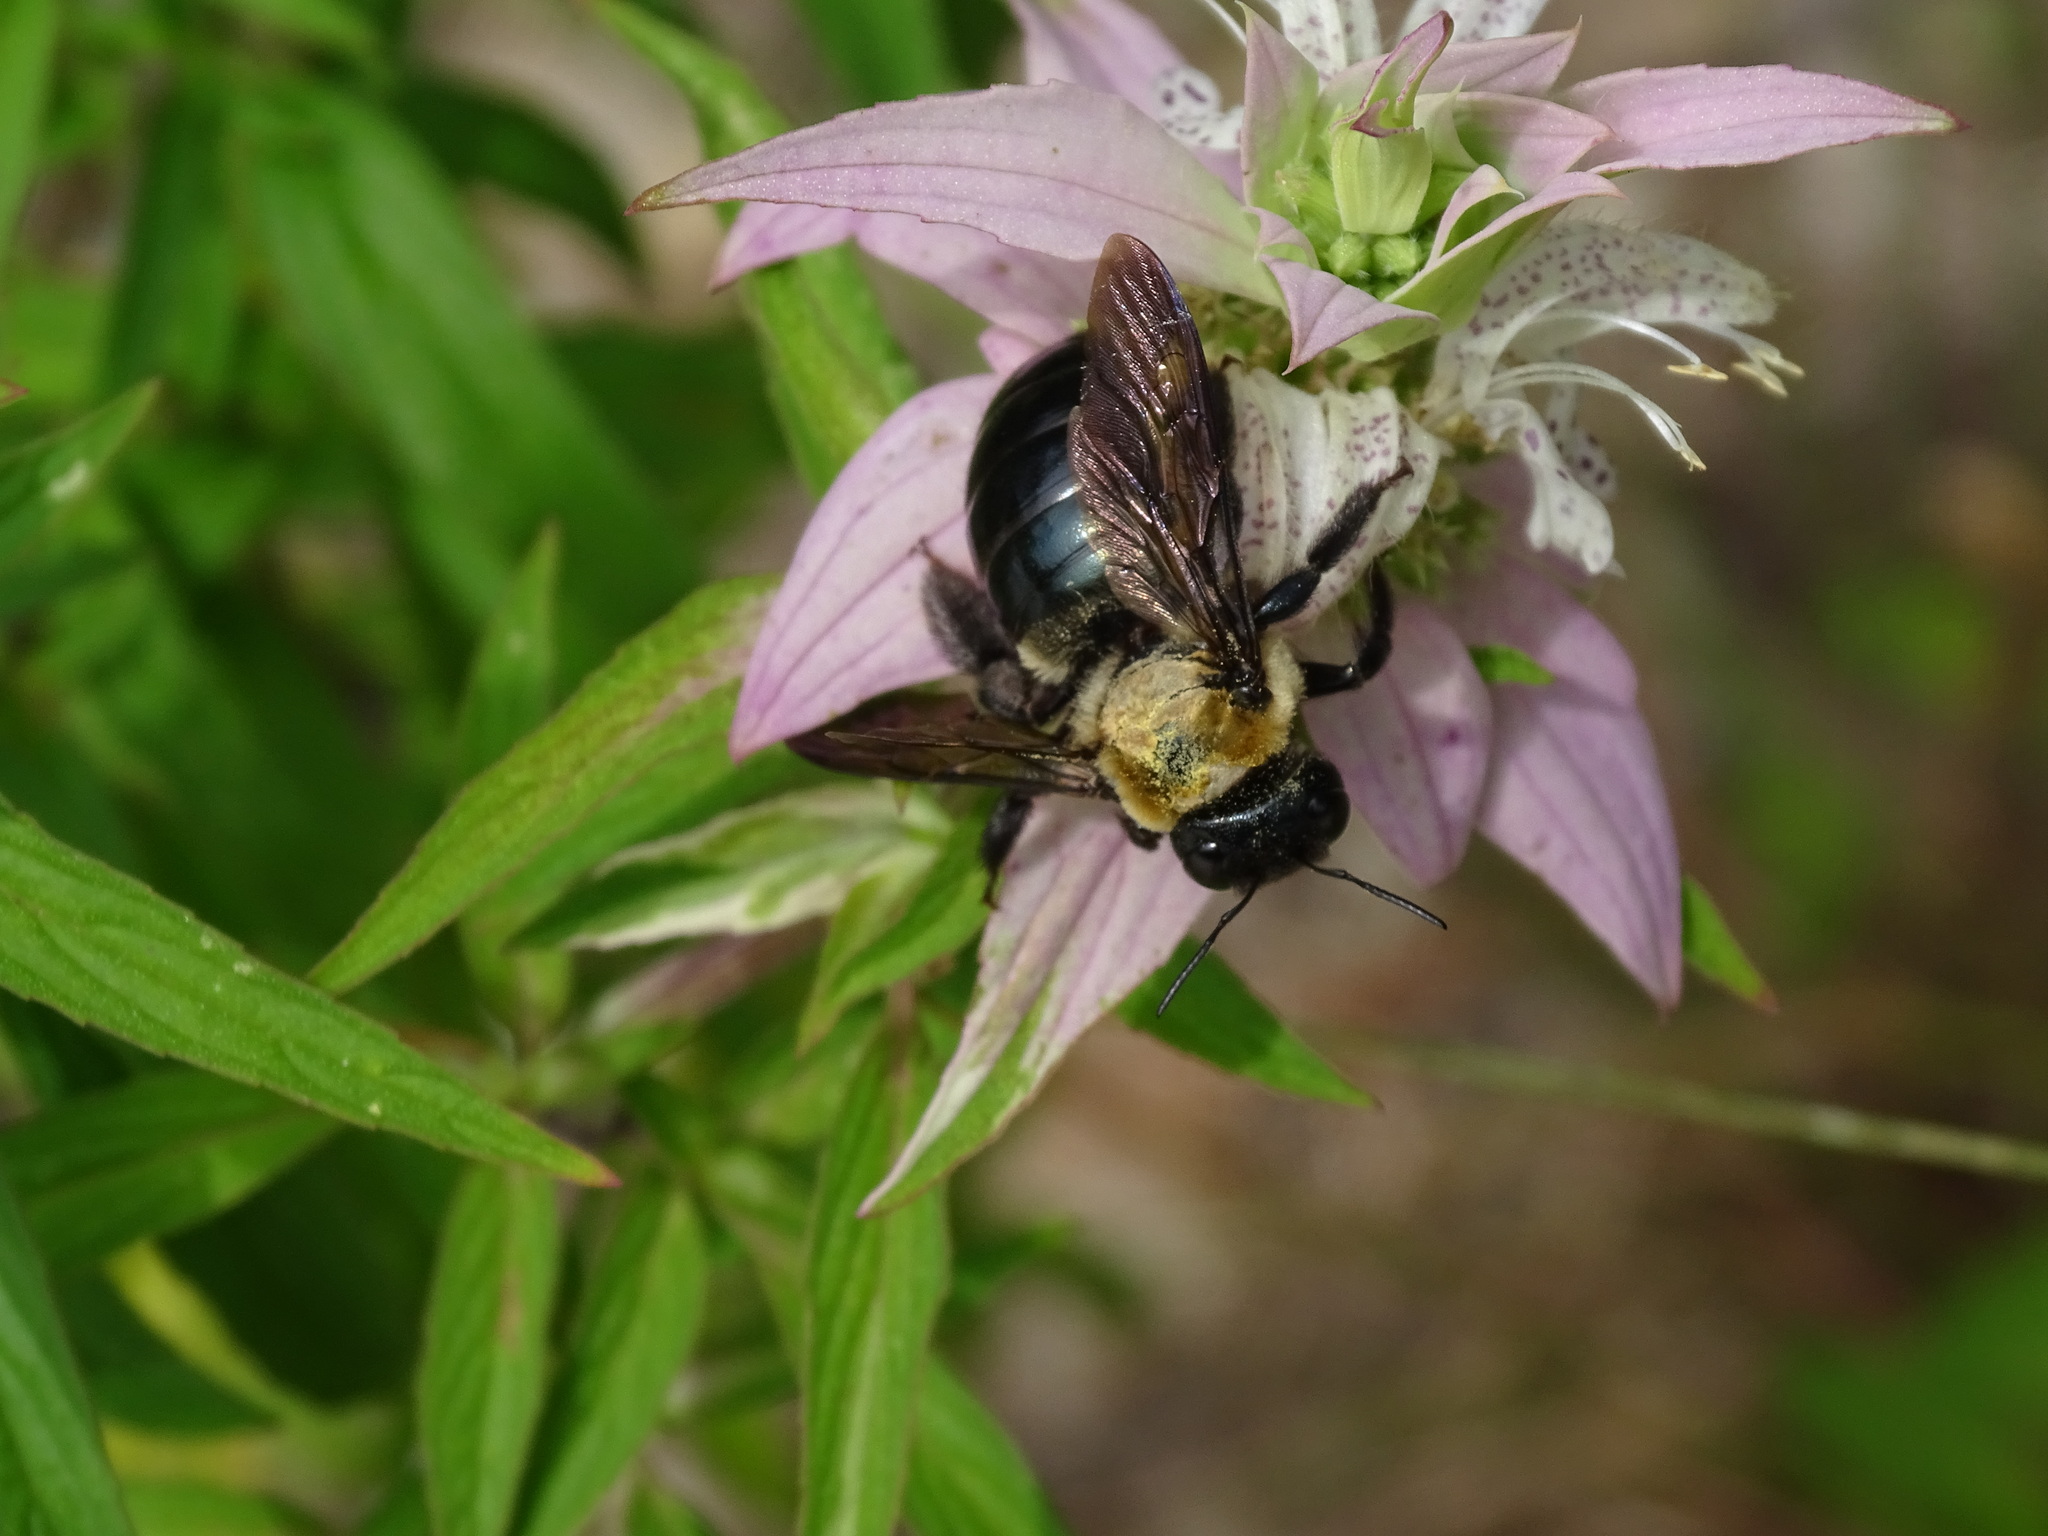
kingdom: Animalia
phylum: Arthropoda
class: Insecta
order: Hymenoptera
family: Apidae
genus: Xylocopa
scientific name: Xylocopa virginica
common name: Carpenter bee
